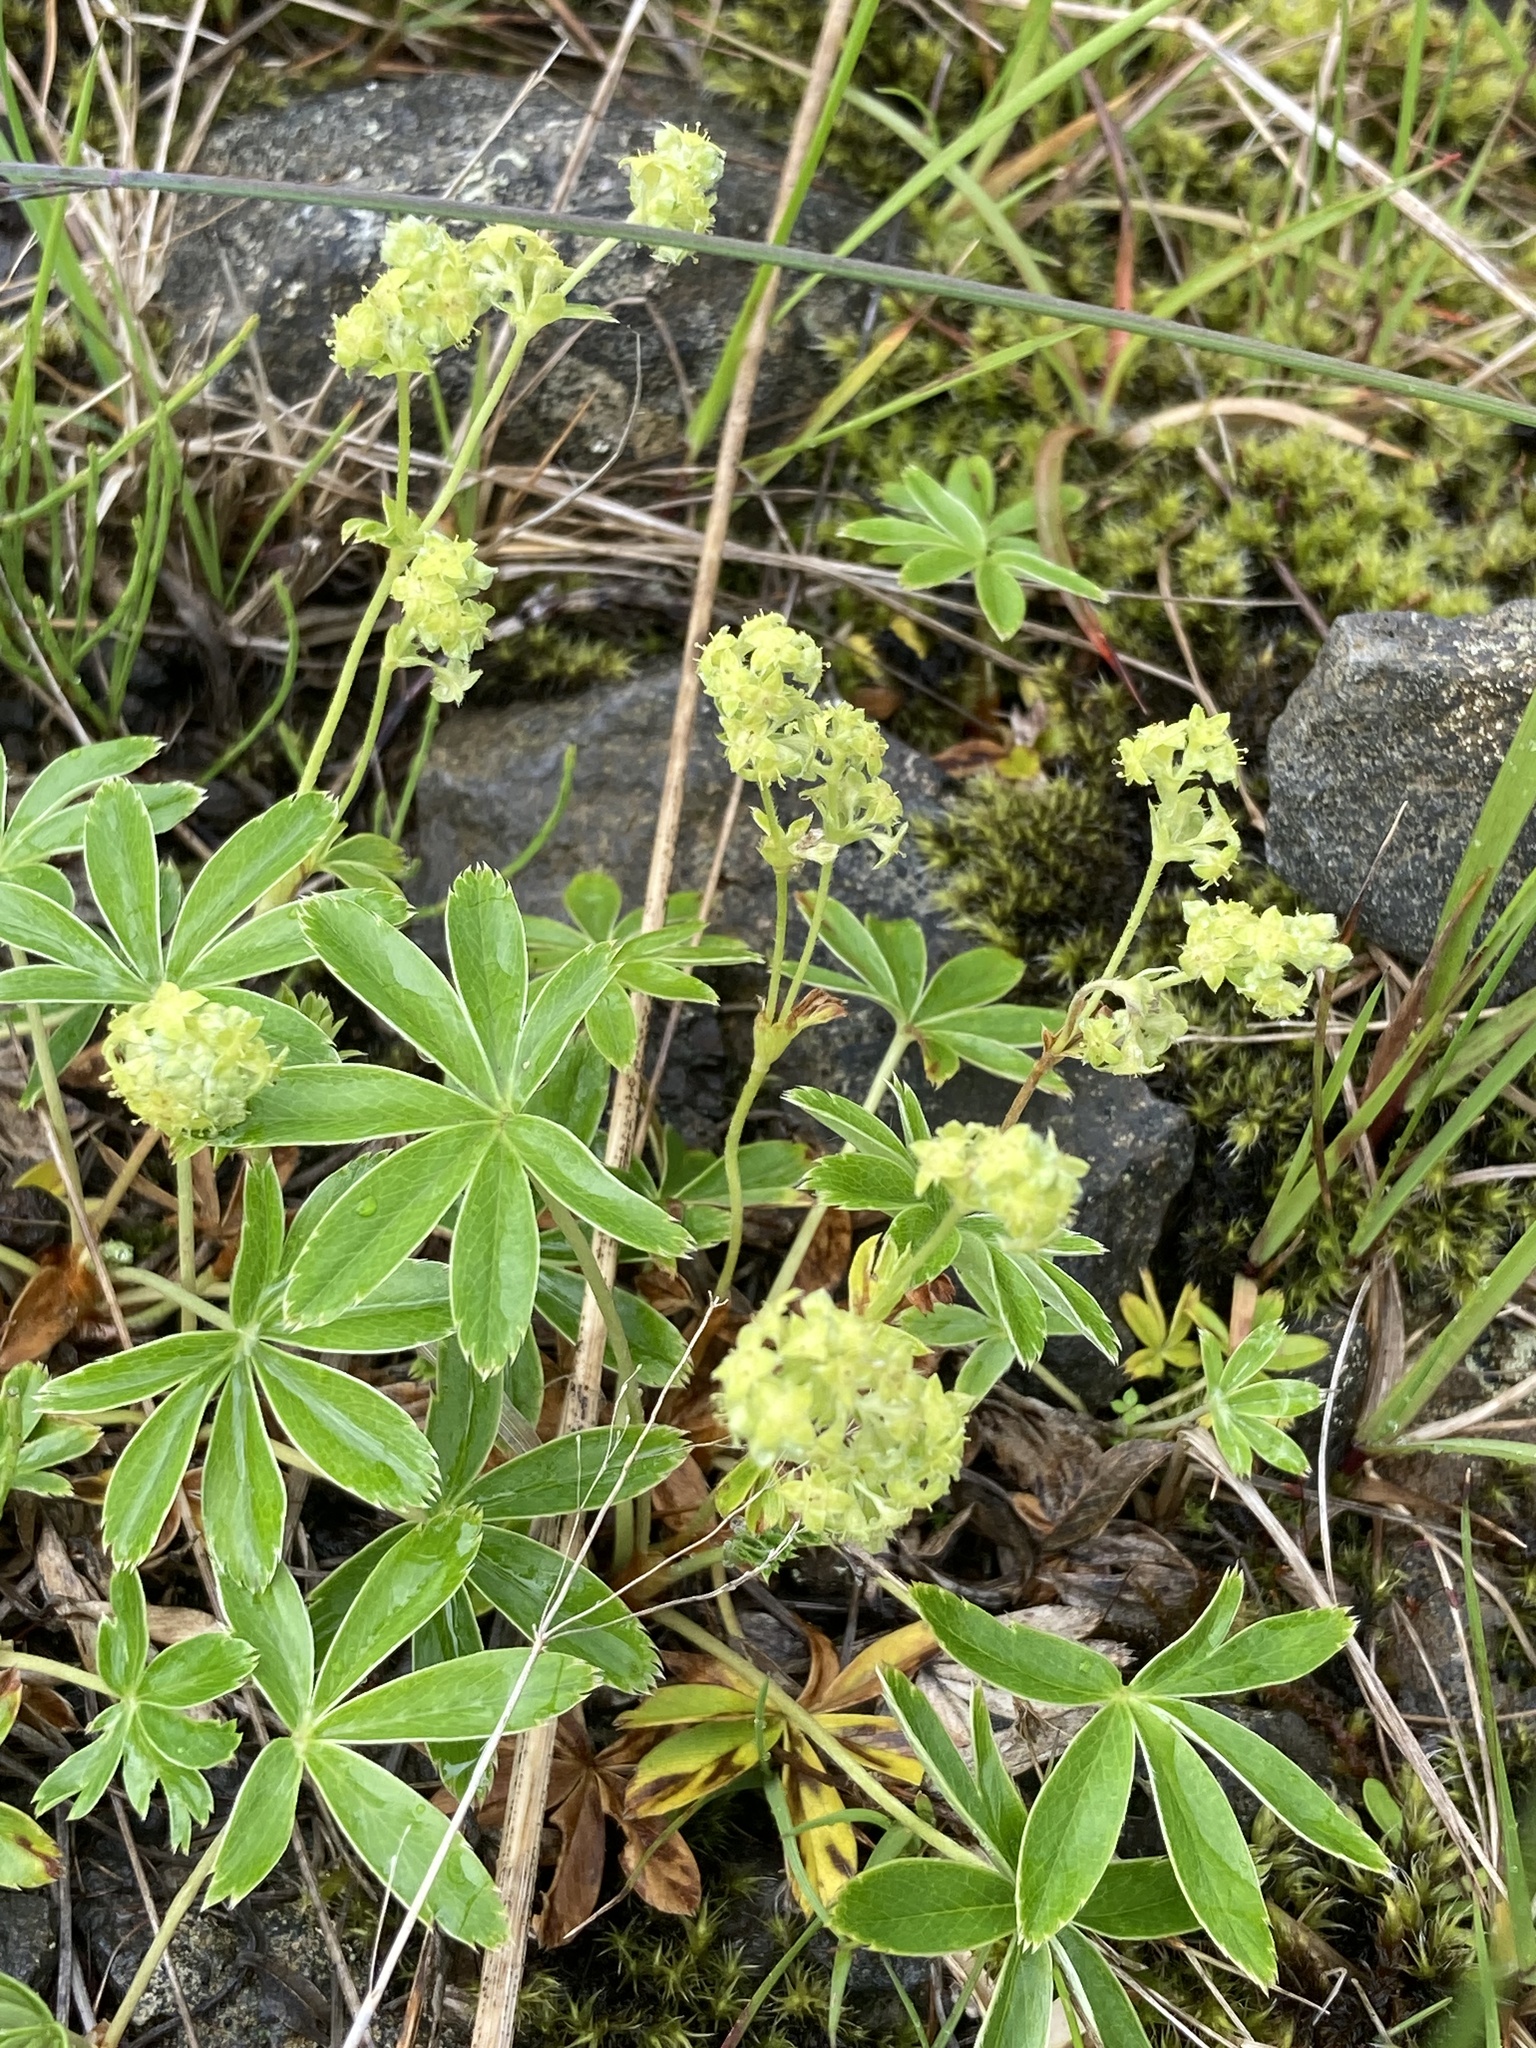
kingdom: Plantae
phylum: Tracheophyta
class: Magnoliopsida
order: Rosales
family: Rosaceae
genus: Alchemilla
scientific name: Alchemilla alpina
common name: Alpine lady's-mantle
